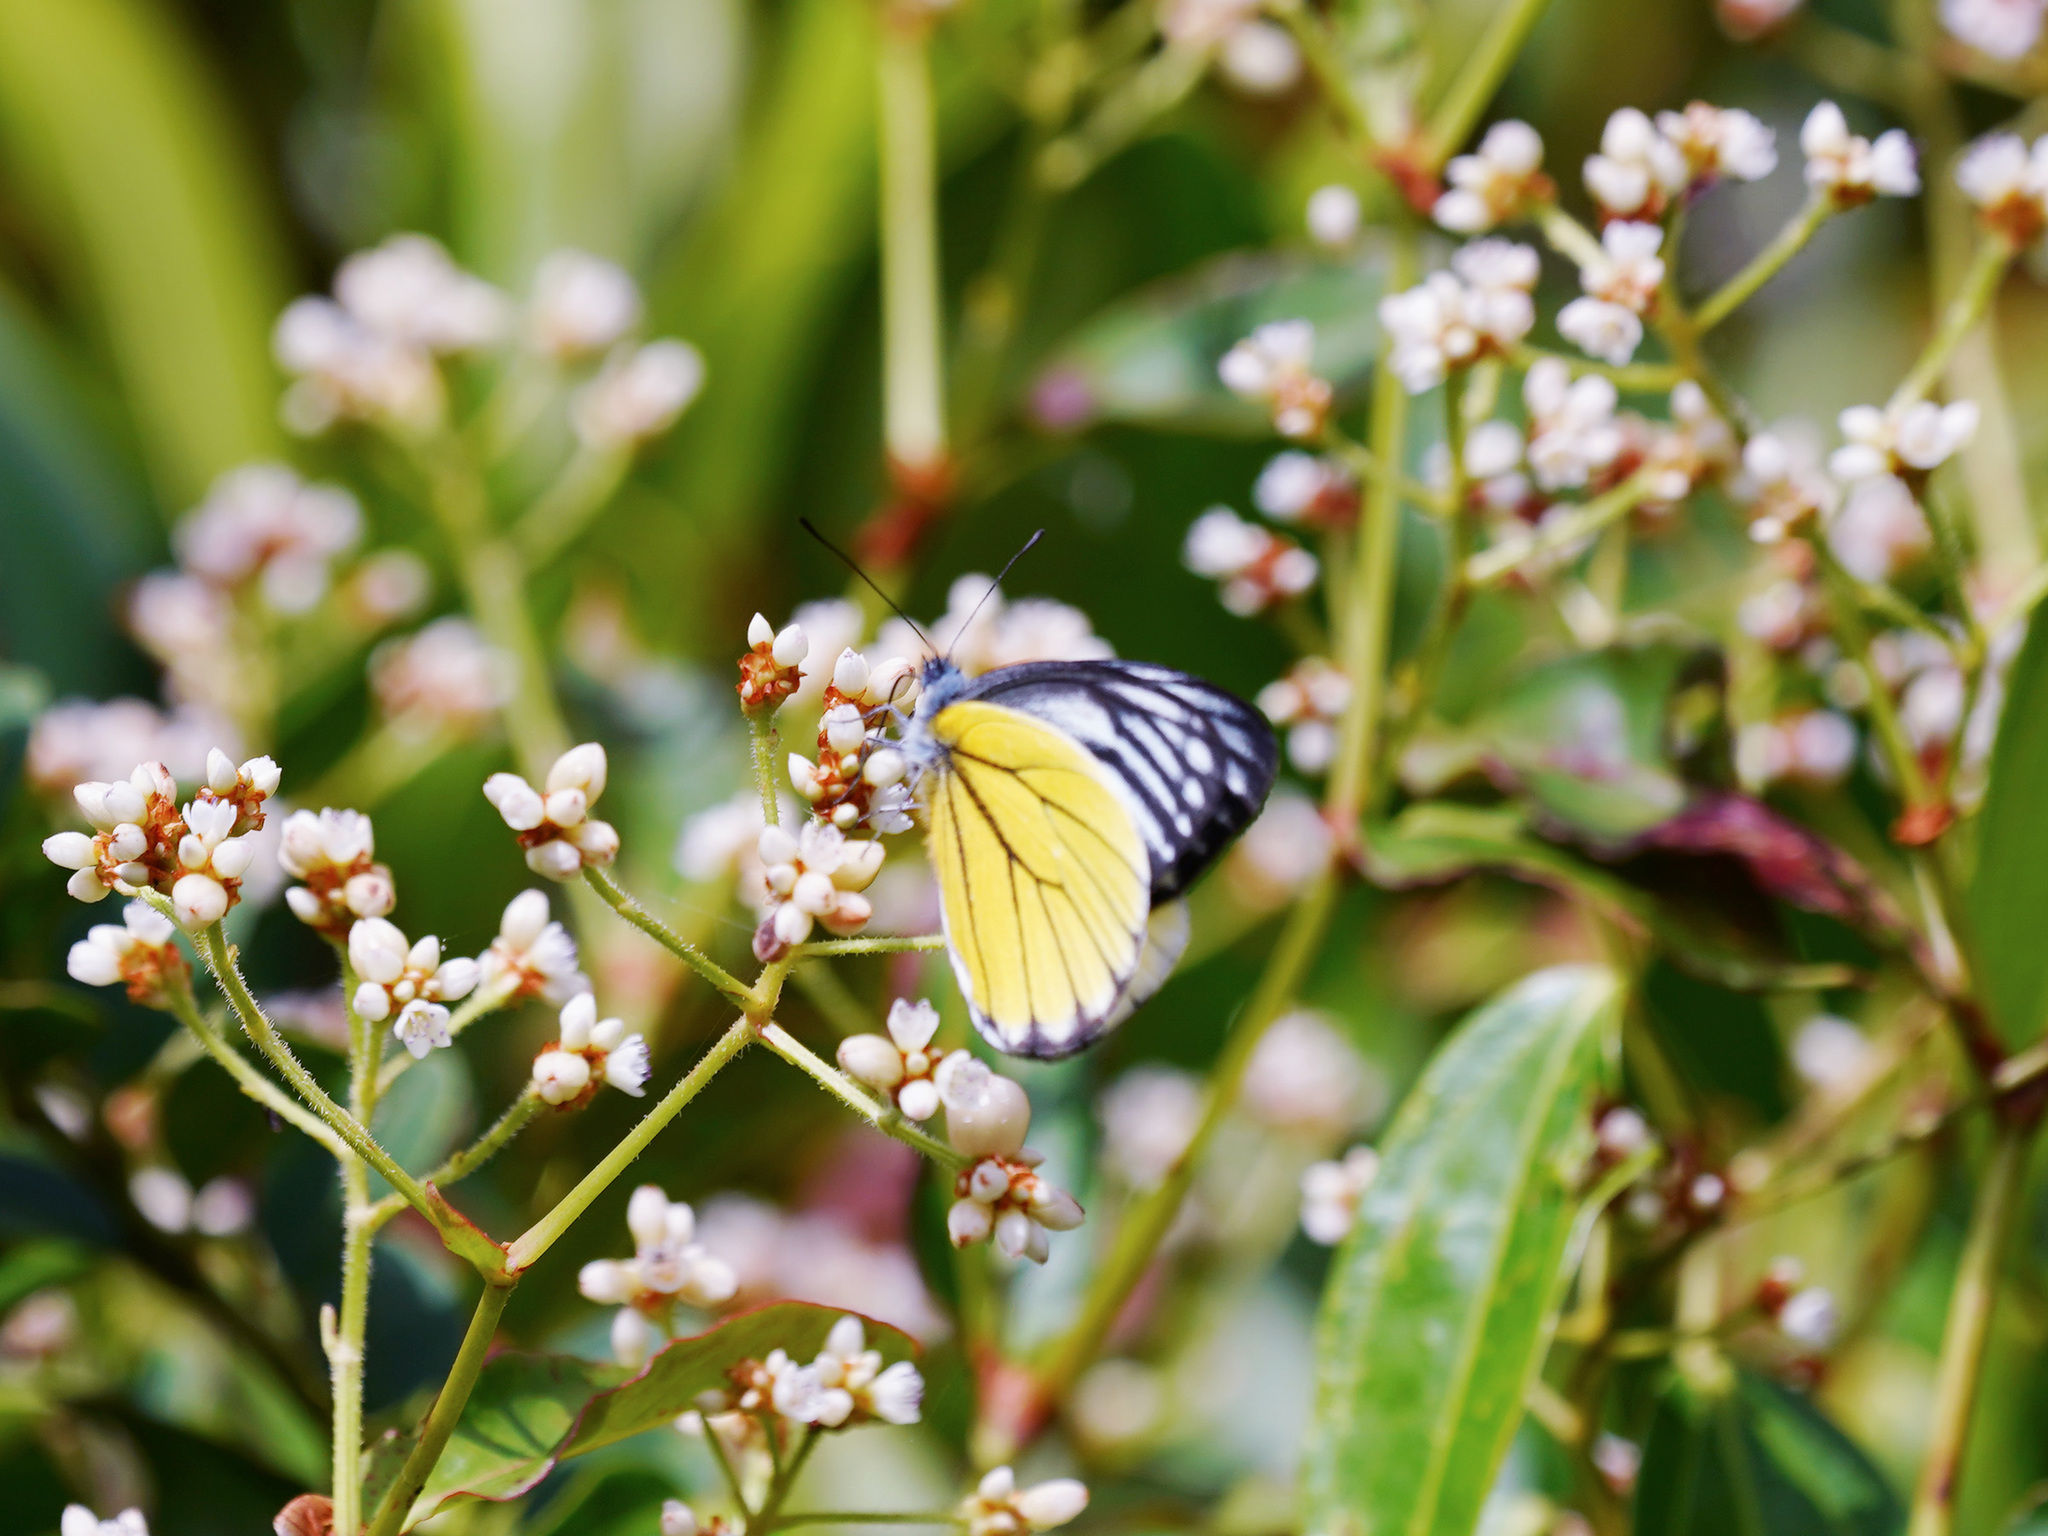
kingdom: Animalia
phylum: Arthropoda
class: Insecta
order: Lepidoptera
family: Pieridae
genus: Delias
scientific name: Delias baracasa
